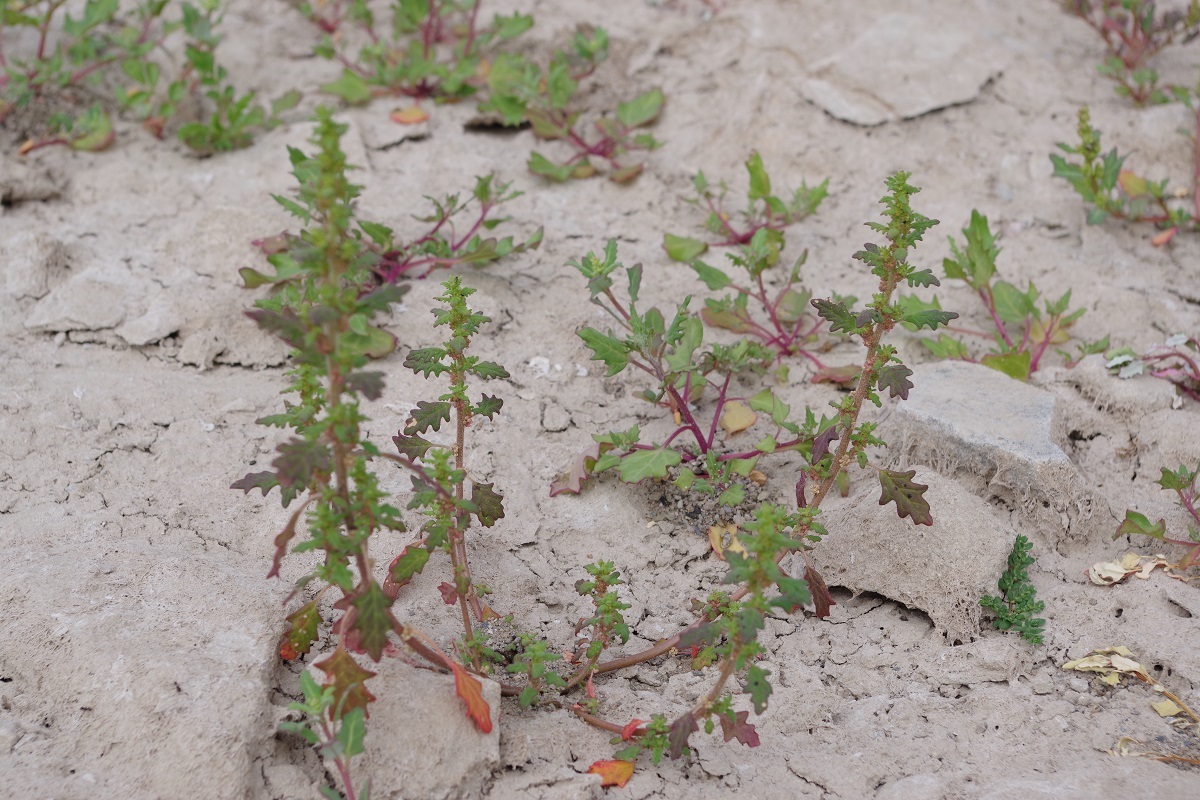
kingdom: Plantae
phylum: Tracheophyta
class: Magnoliopsida
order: Caryophyllales
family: Amaranthaceae
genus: Dysphania
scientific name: Dysphania pumilio
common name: Clammy goosefoot
